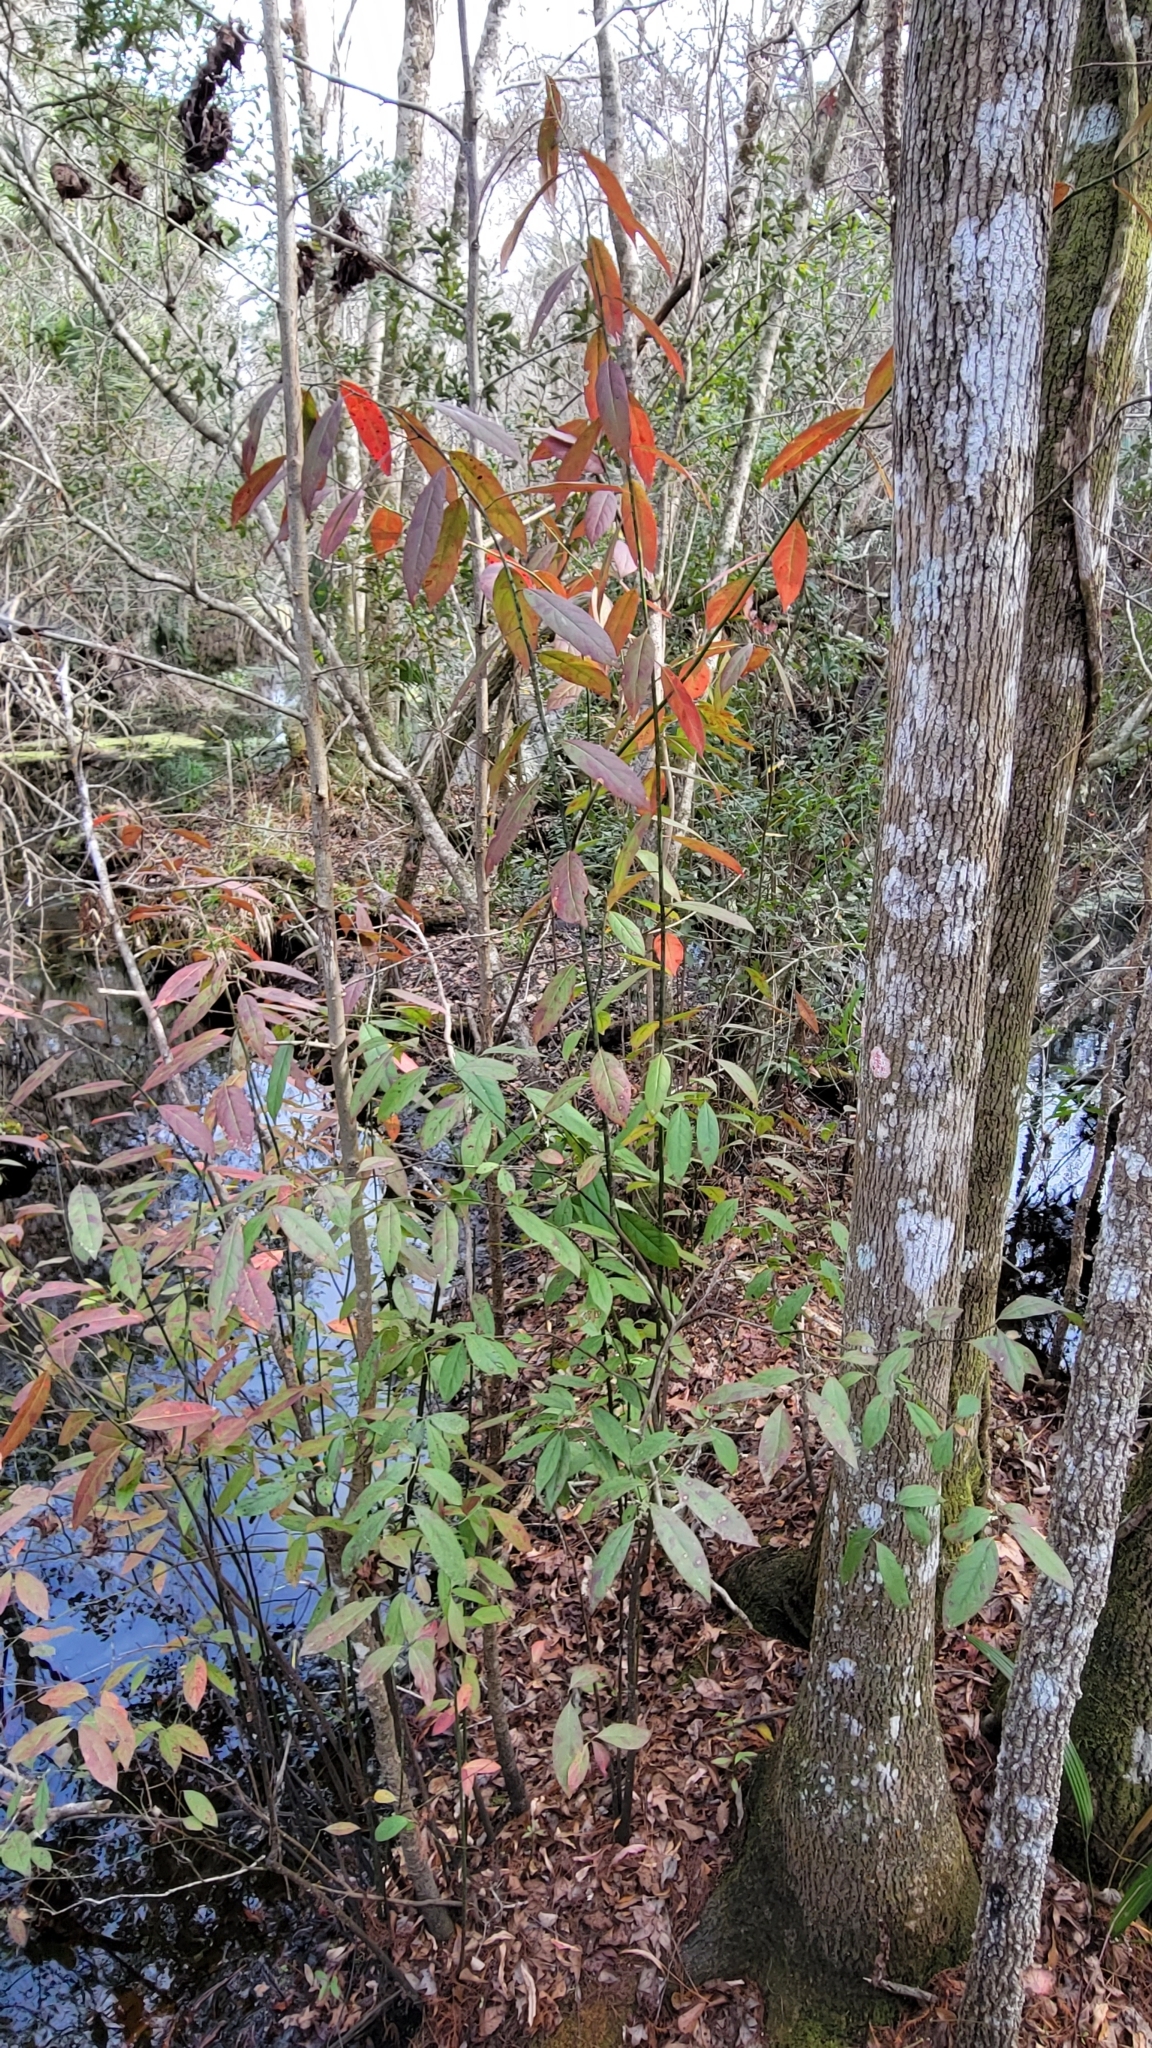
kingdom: Plantae
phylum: Tracheophyta
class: Magnoliopsida
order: Saxifragales
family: Iteaceae
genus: Itea
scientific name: Itea virginica
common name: Sweetspire
